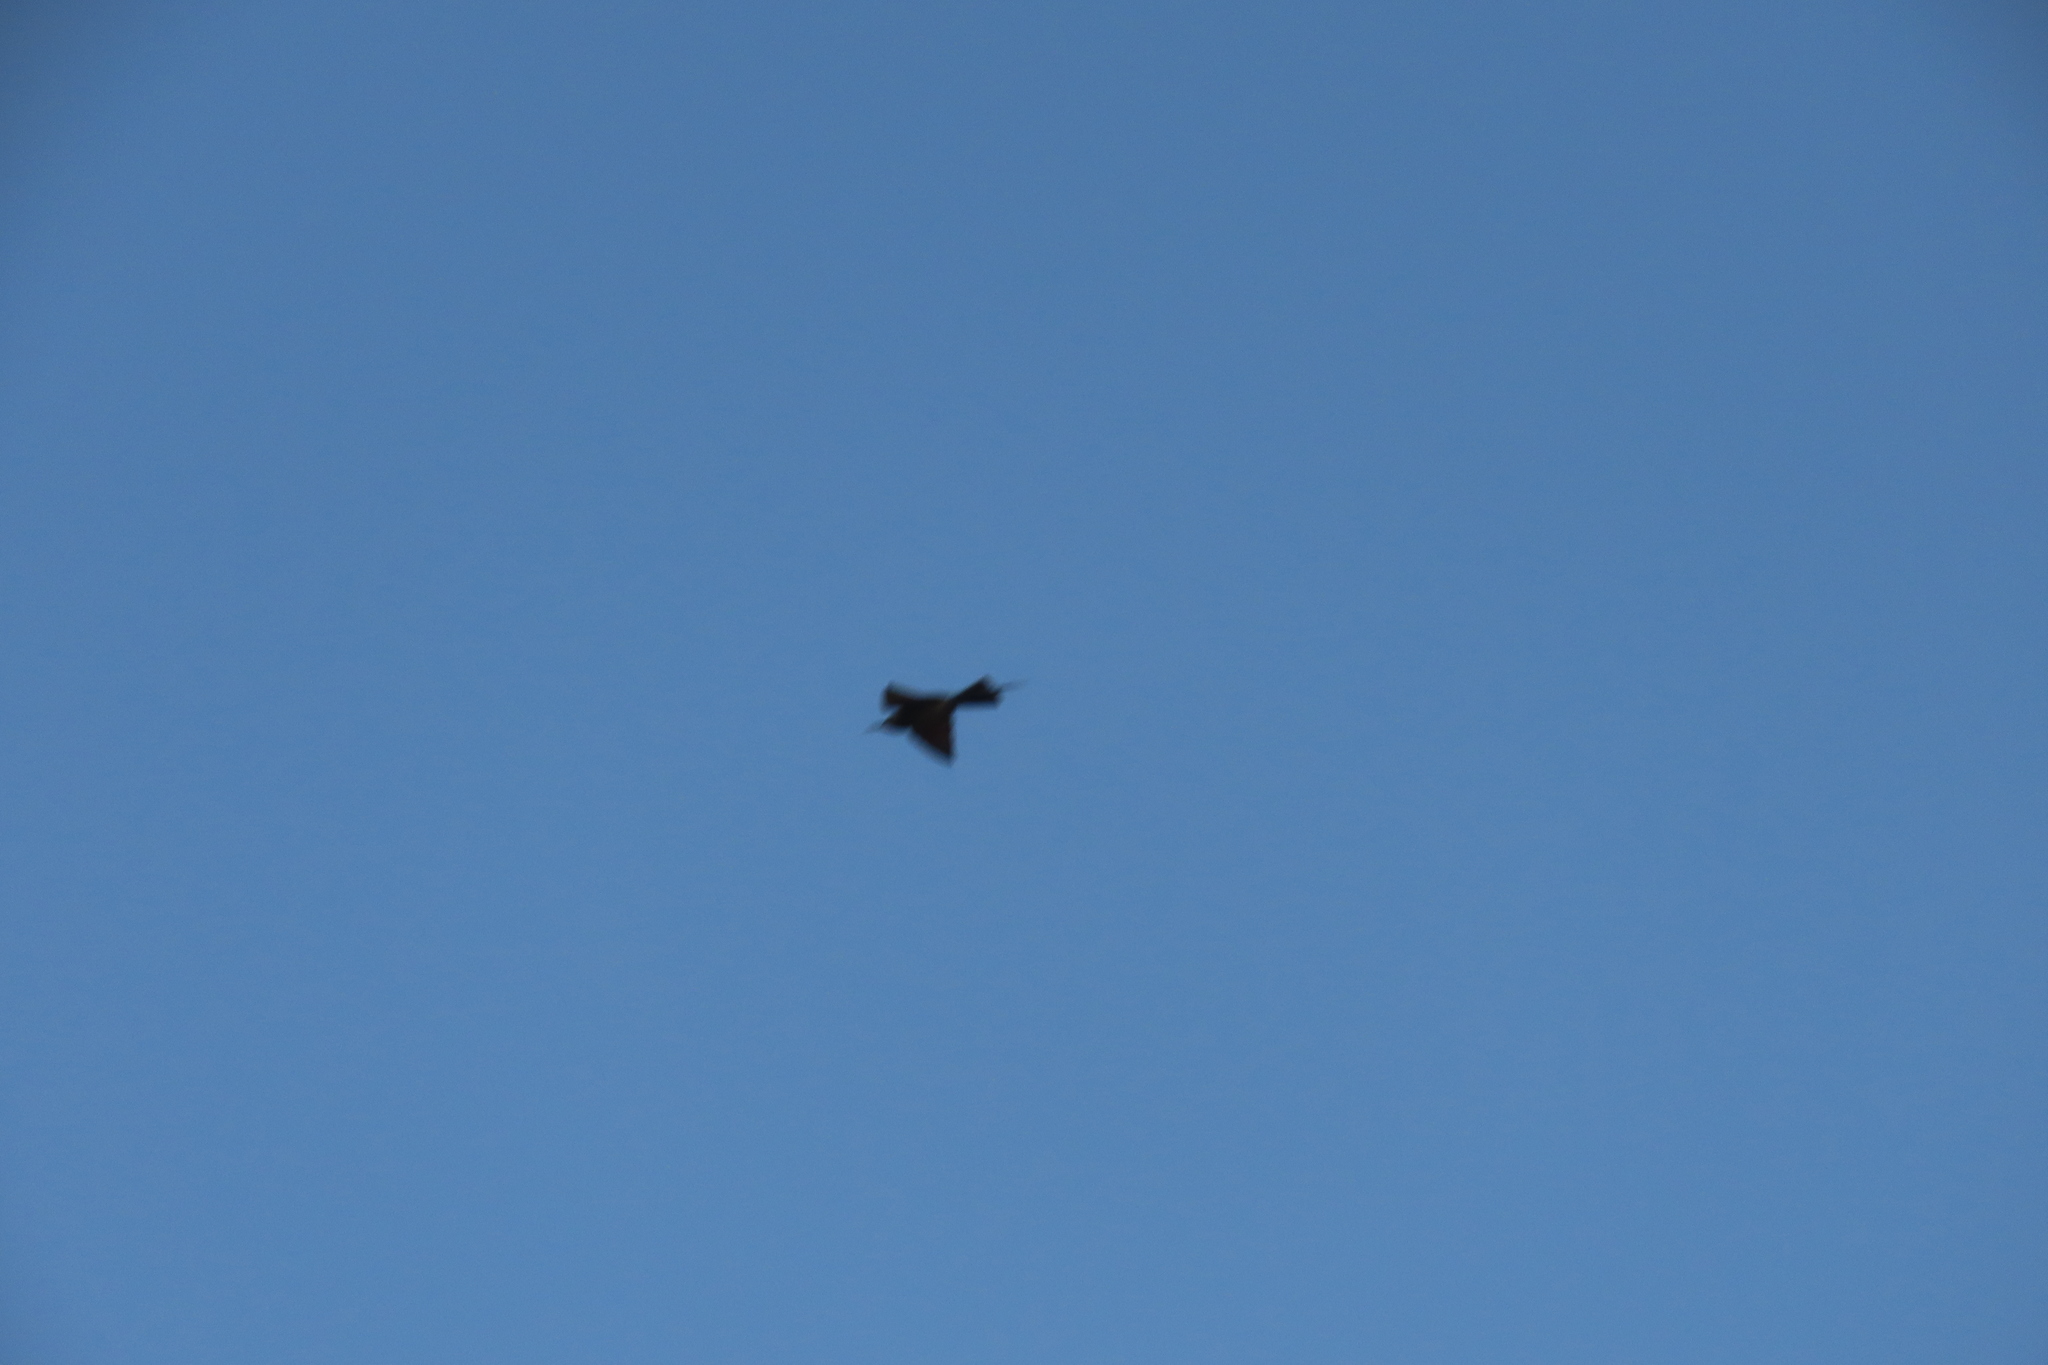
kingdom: Animalia
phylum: Chordata
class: Aves
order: Coraciiformes
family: Meropidae
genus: Merops
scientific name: Merops philippinus
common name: Blue-tailed bee-eater
